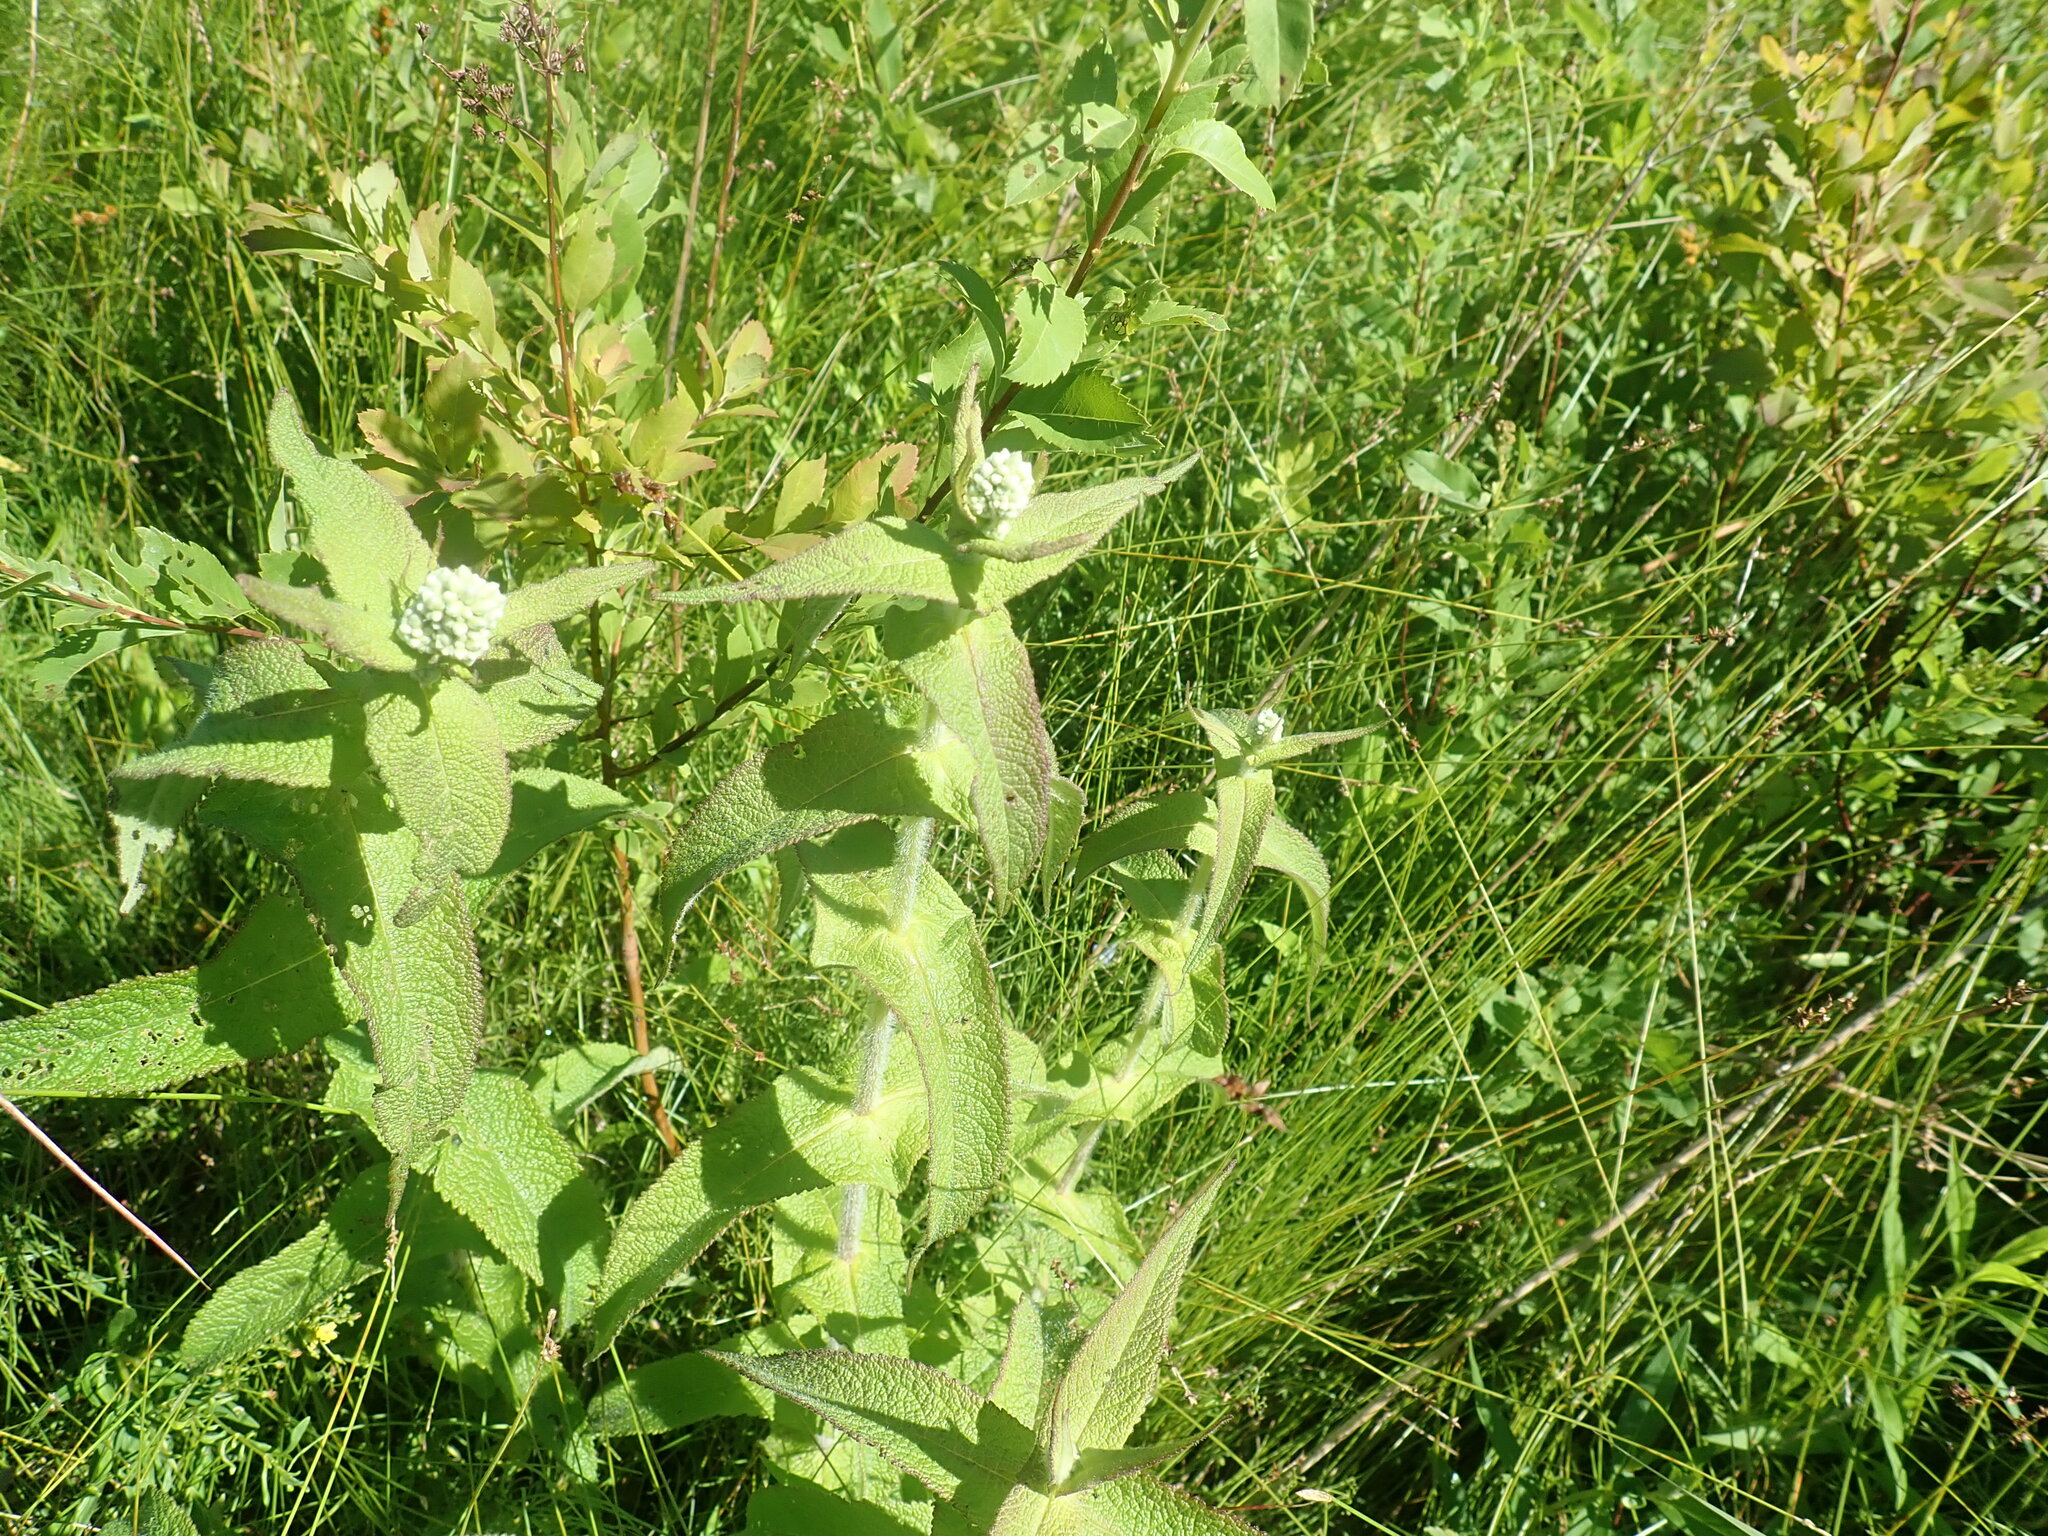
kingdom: Plantae
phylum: Tracheophyta
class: Magnoliopsida
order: Asterales
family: Asteraceae
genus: Eupatorium
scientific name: Eupatorium perfoliatum
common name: Boneset
